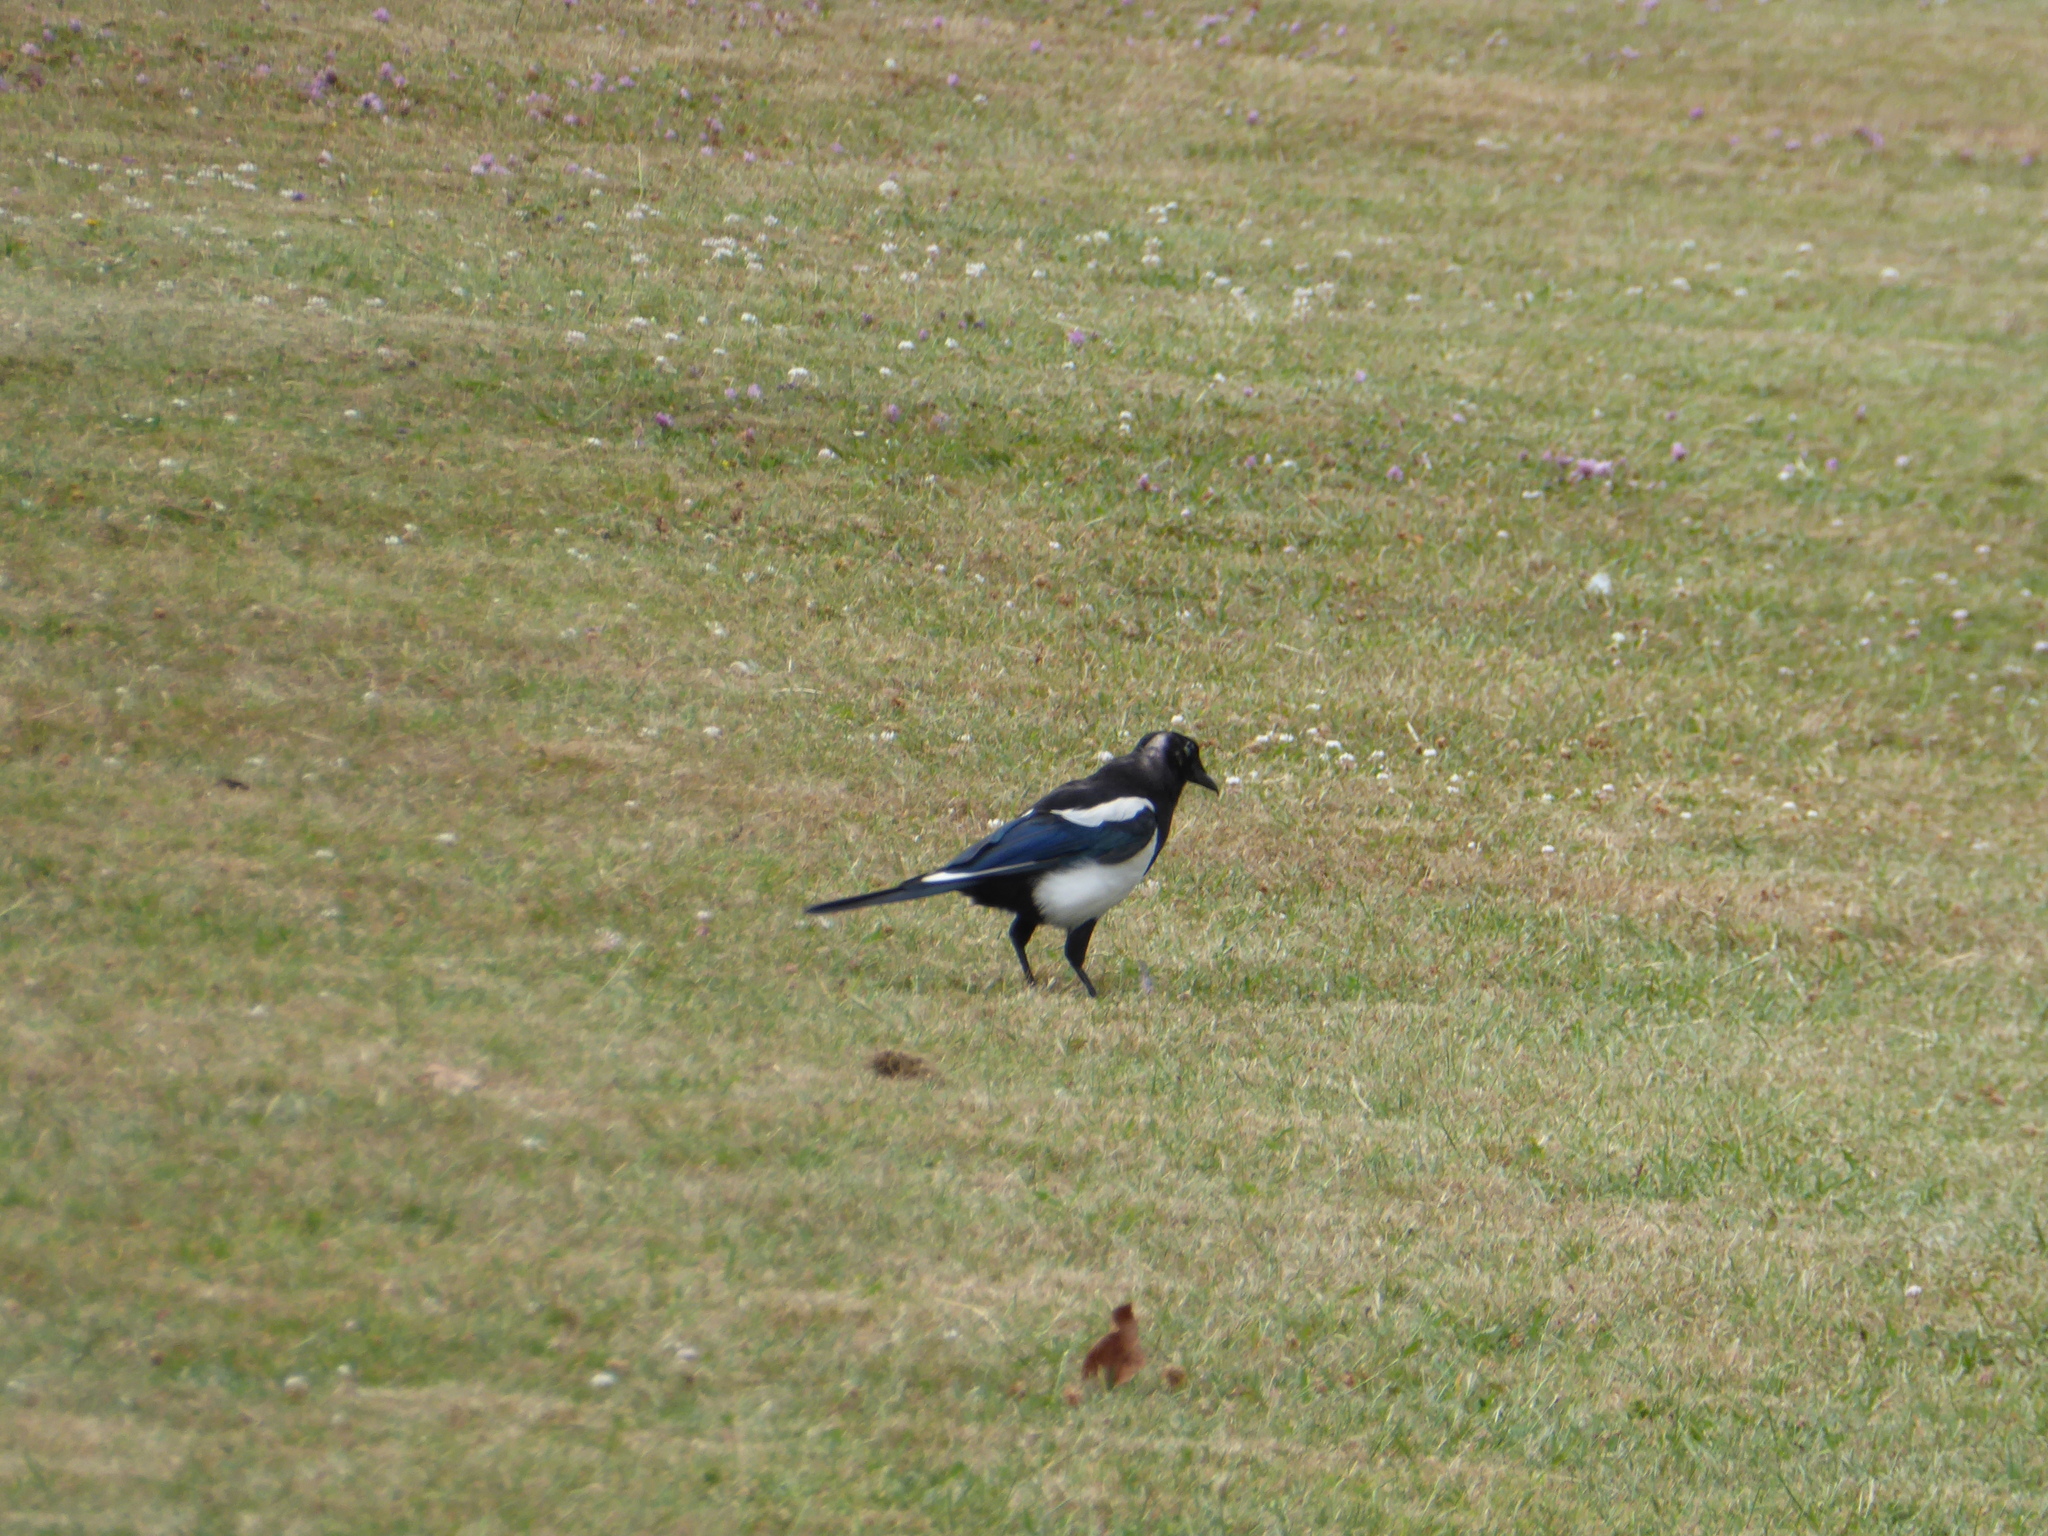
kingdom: Animalia
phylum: Chordata
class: Aves
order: Passeriformes
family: Corvidae
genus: Pica
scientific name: Pica pica
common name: Eurasian magpie
